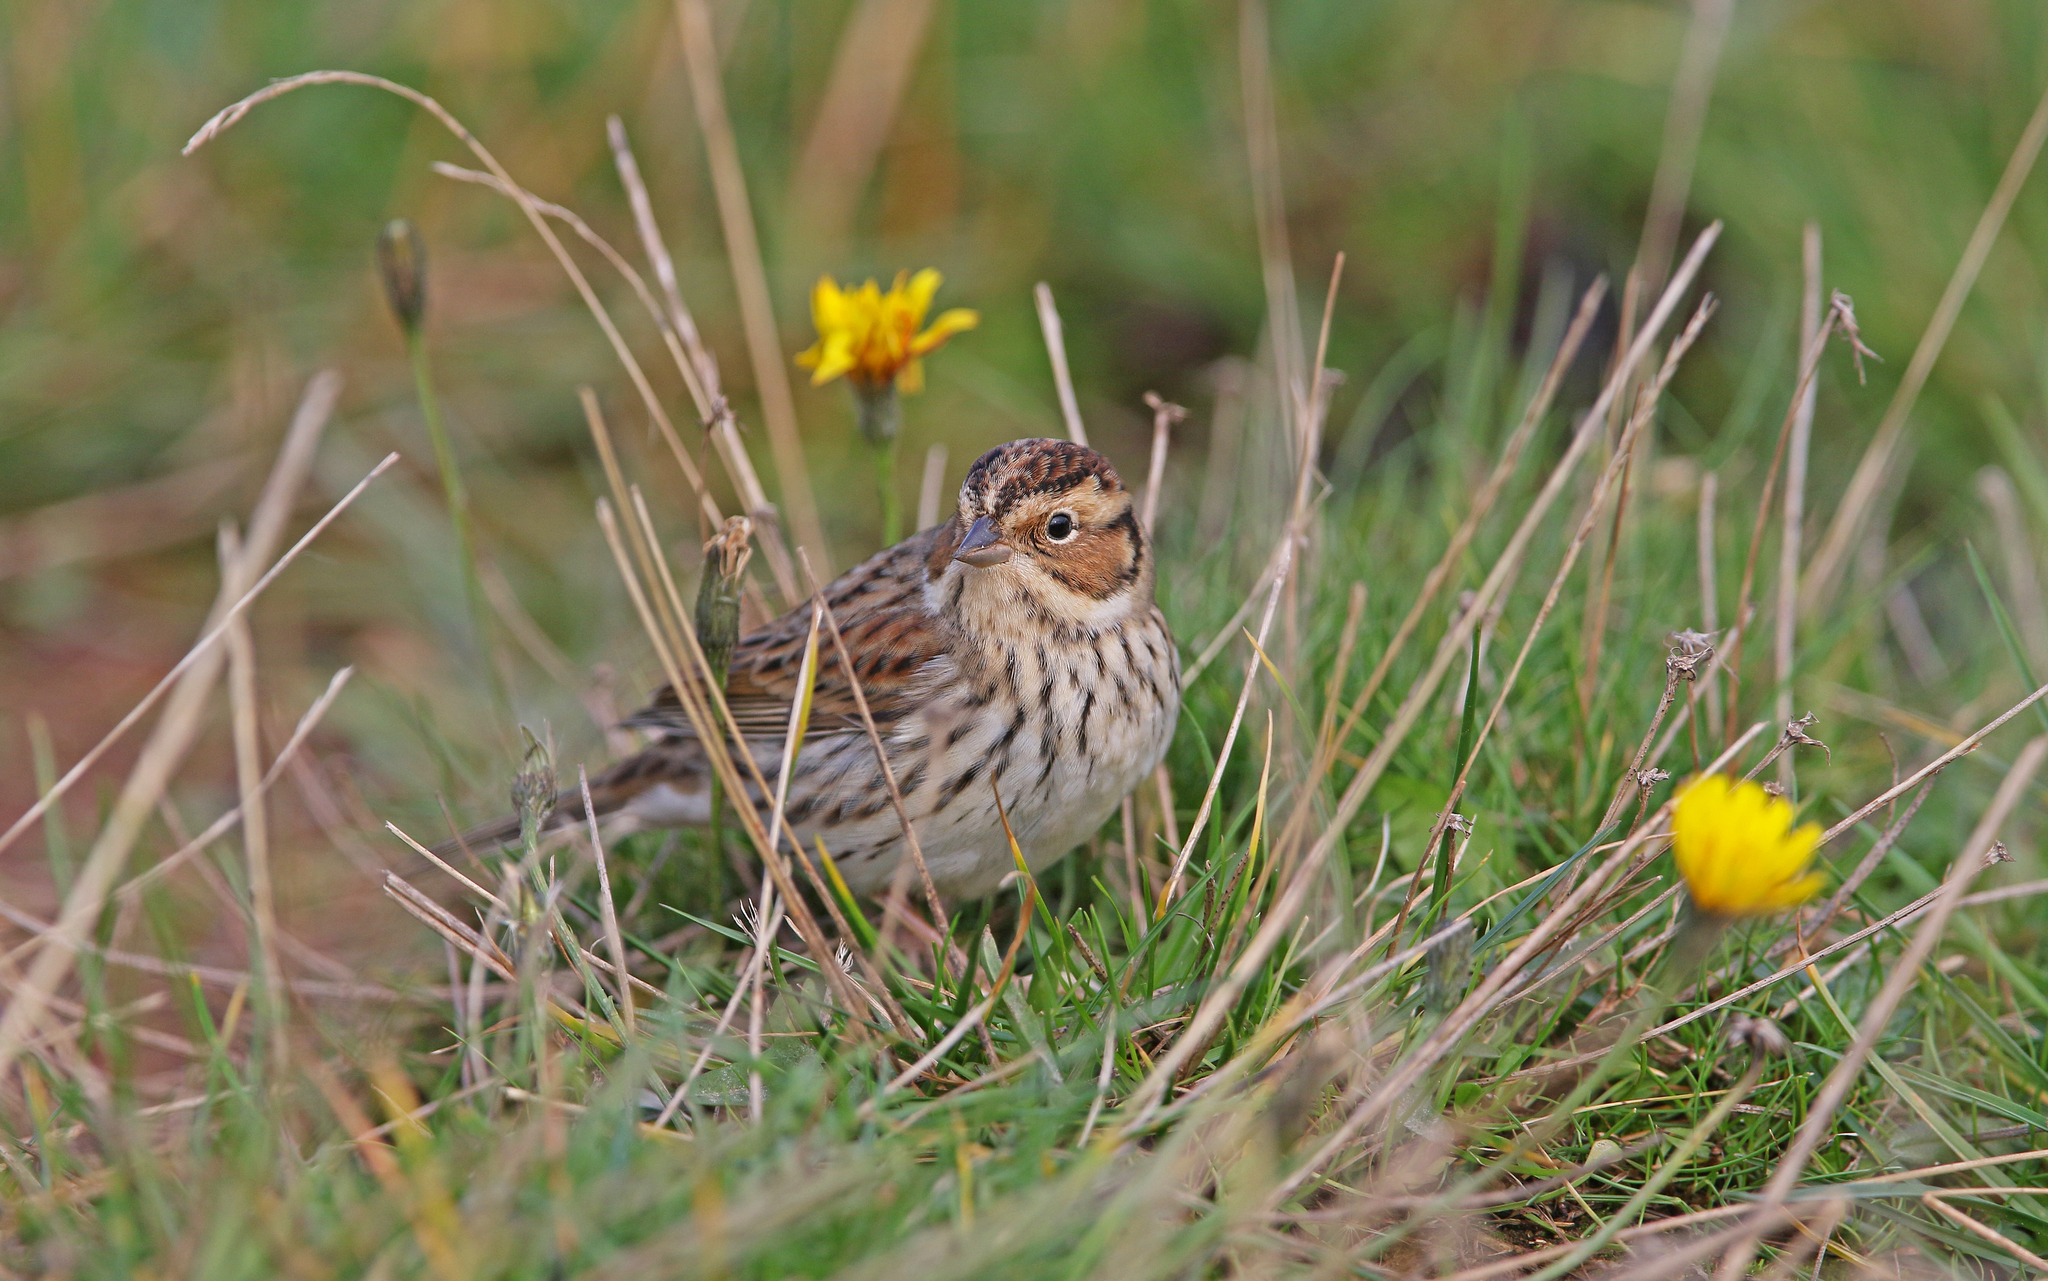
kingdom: Animalia
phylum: Chordata
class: Aves
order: Passeriformes
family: Emberizidae
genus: Emberiza
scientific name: Emberiza pusilla
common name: Little bunting
